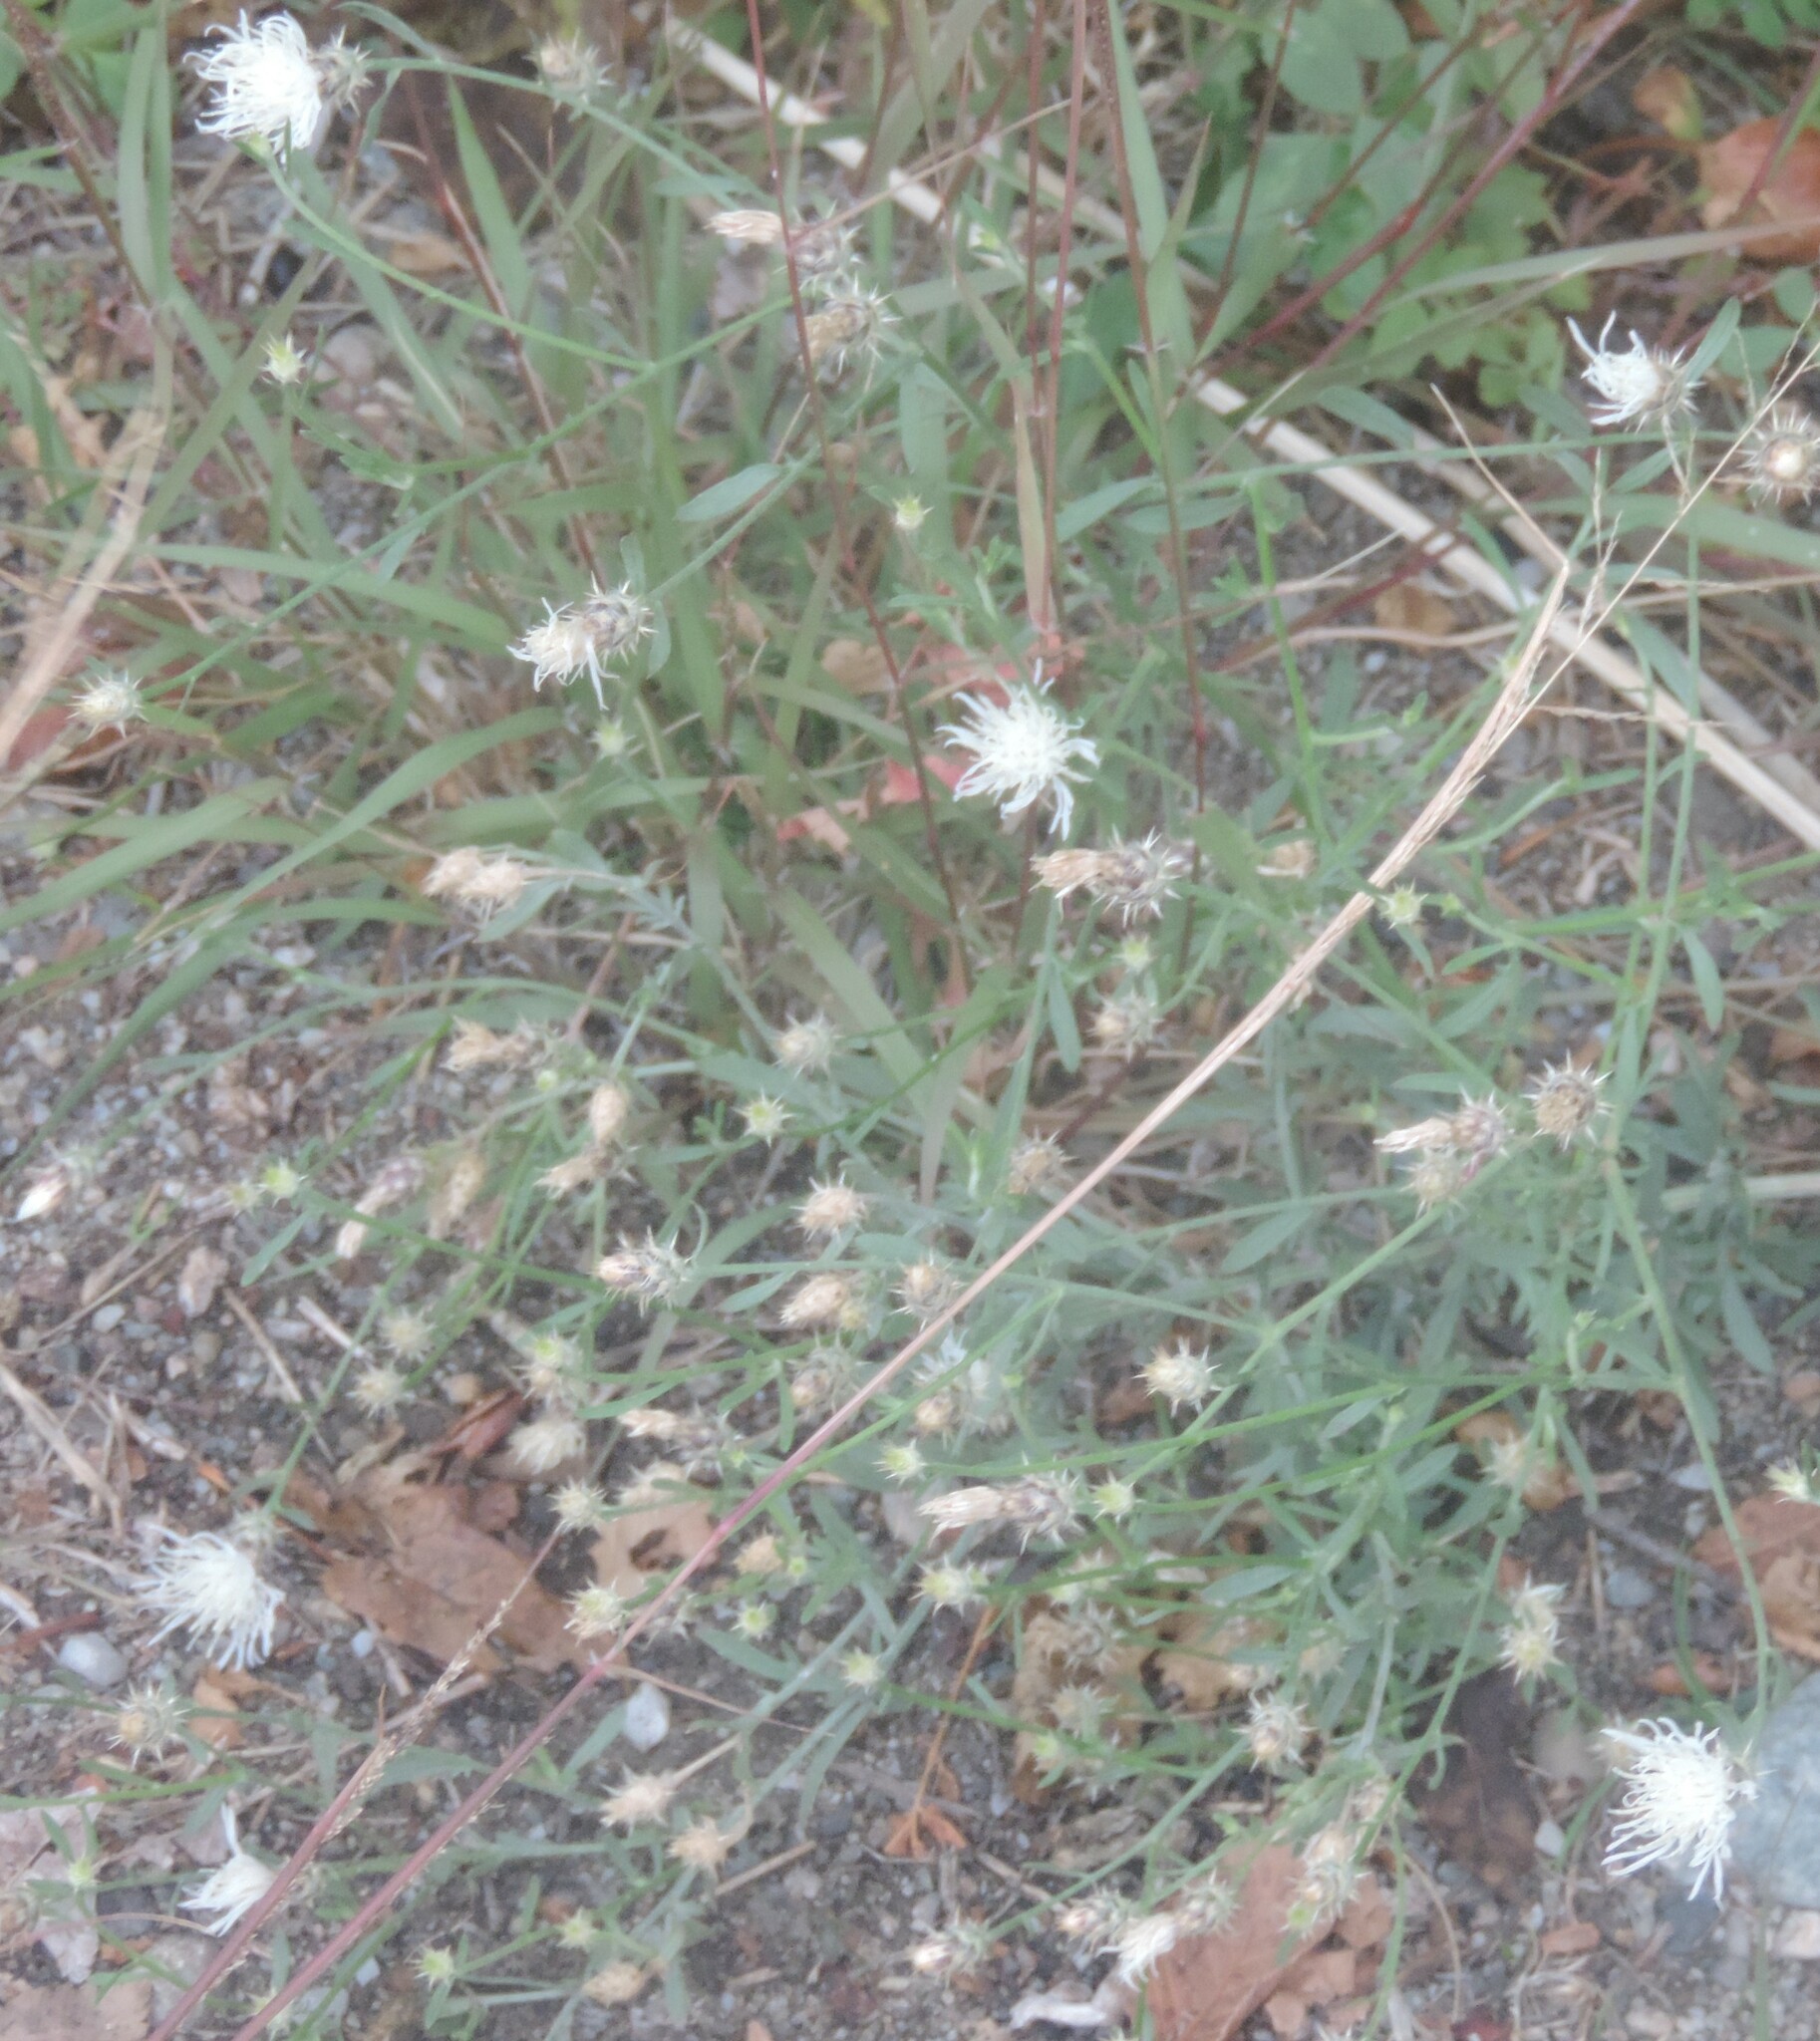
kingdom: Plantae
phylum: Tracheophyta
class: Magnoliopsida
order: Asterales
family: Asteraceae
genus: Centaurea
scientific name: Centaurea diffusa
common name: Diffuse knapweed
